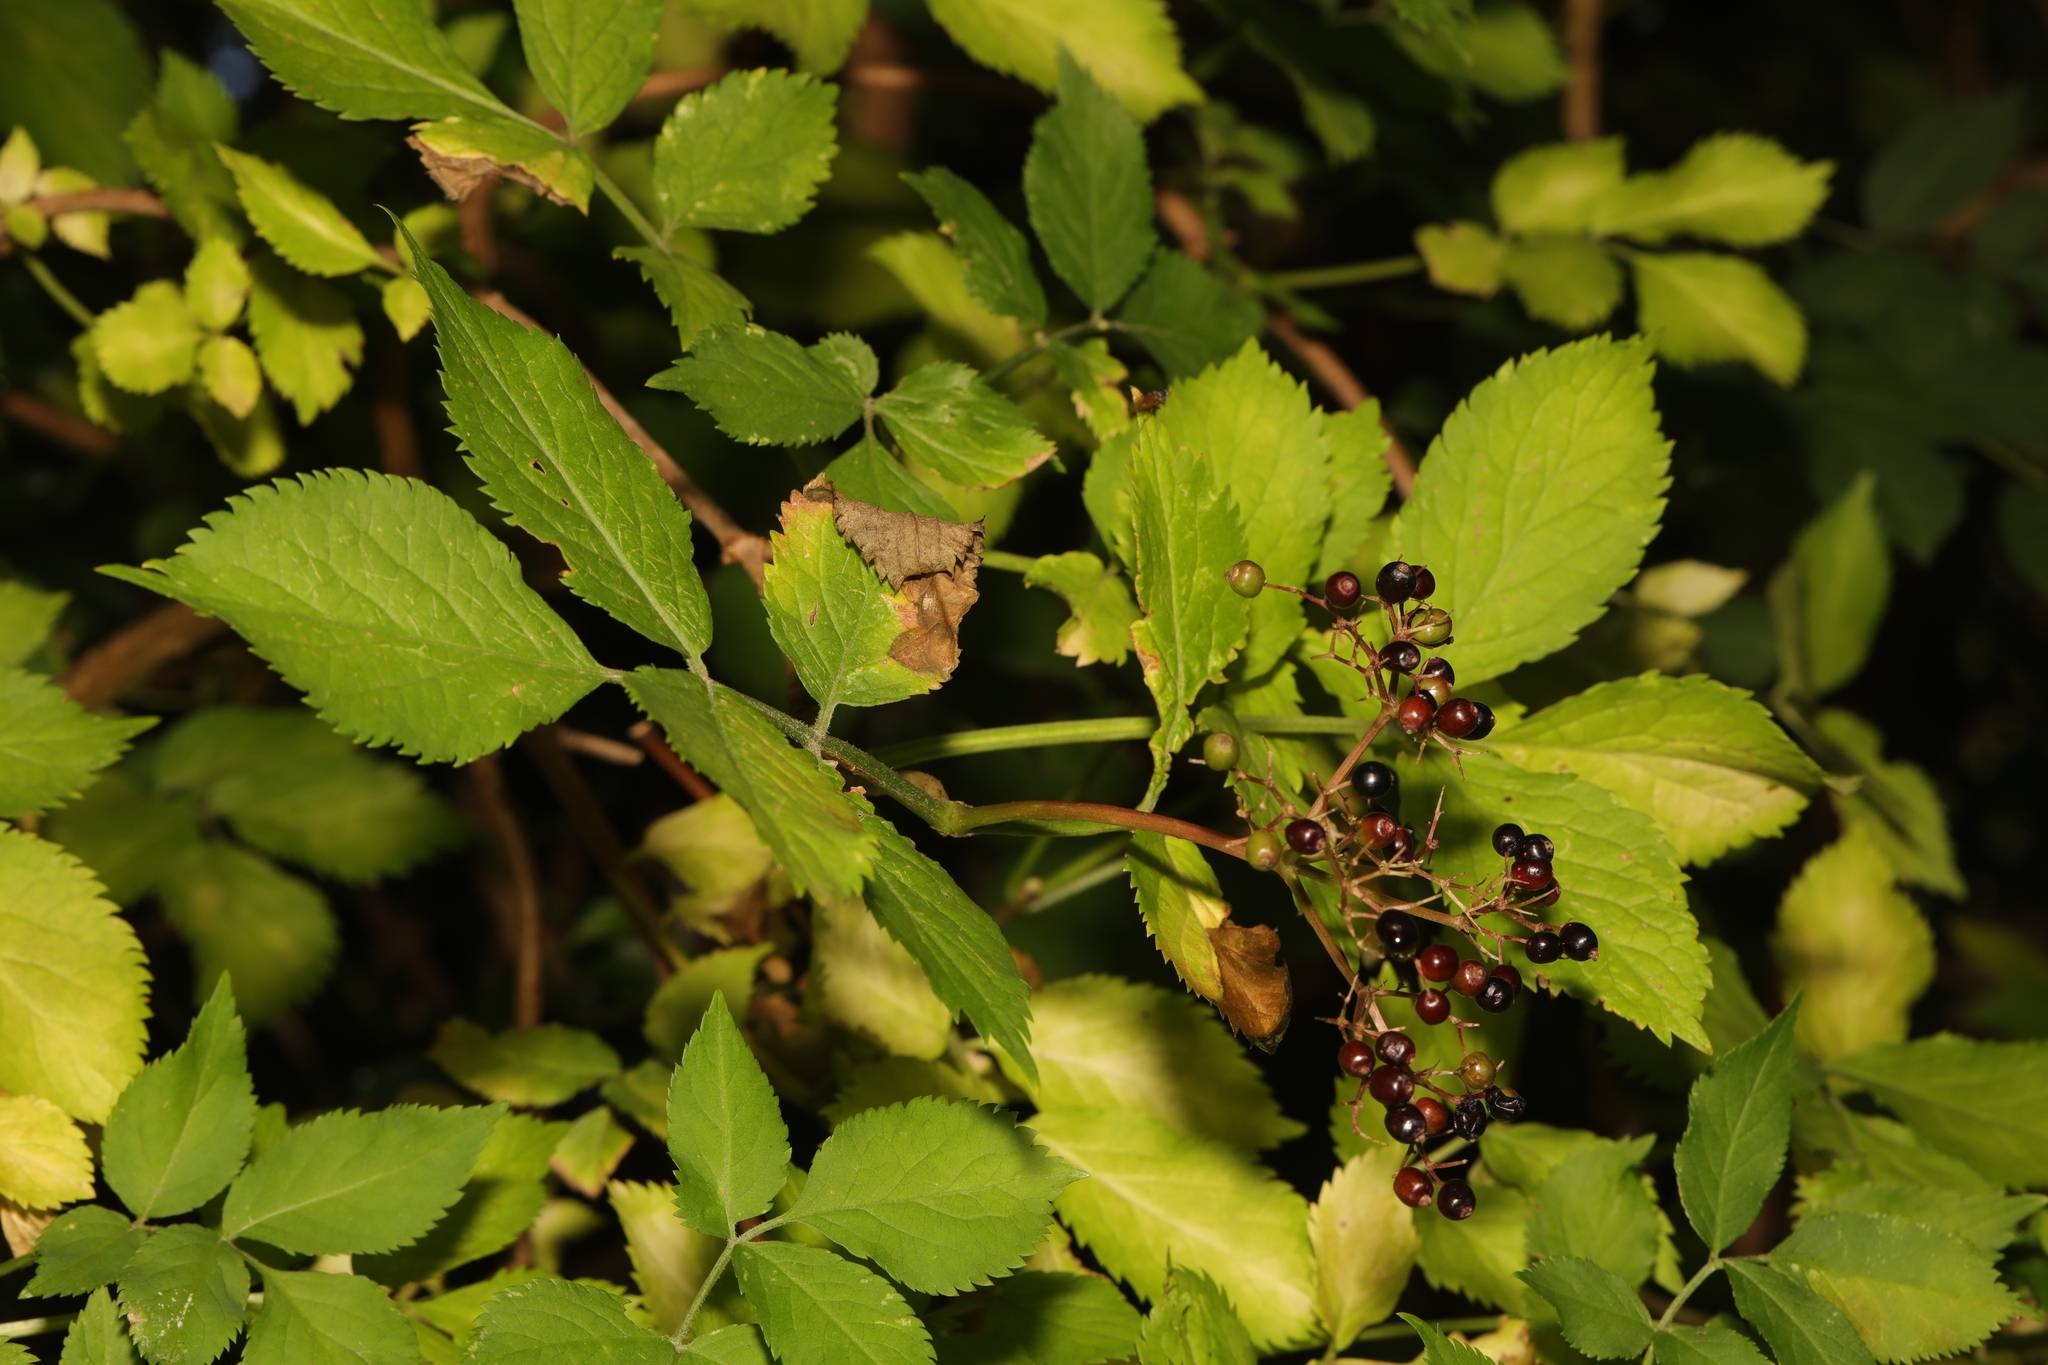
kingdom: Plantae
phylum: Tracheophyta
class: Magnoliopsida
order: Dipsacales
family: Viburnaceae
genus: Sambucus
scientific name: Sambucus nigra
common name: Elder
